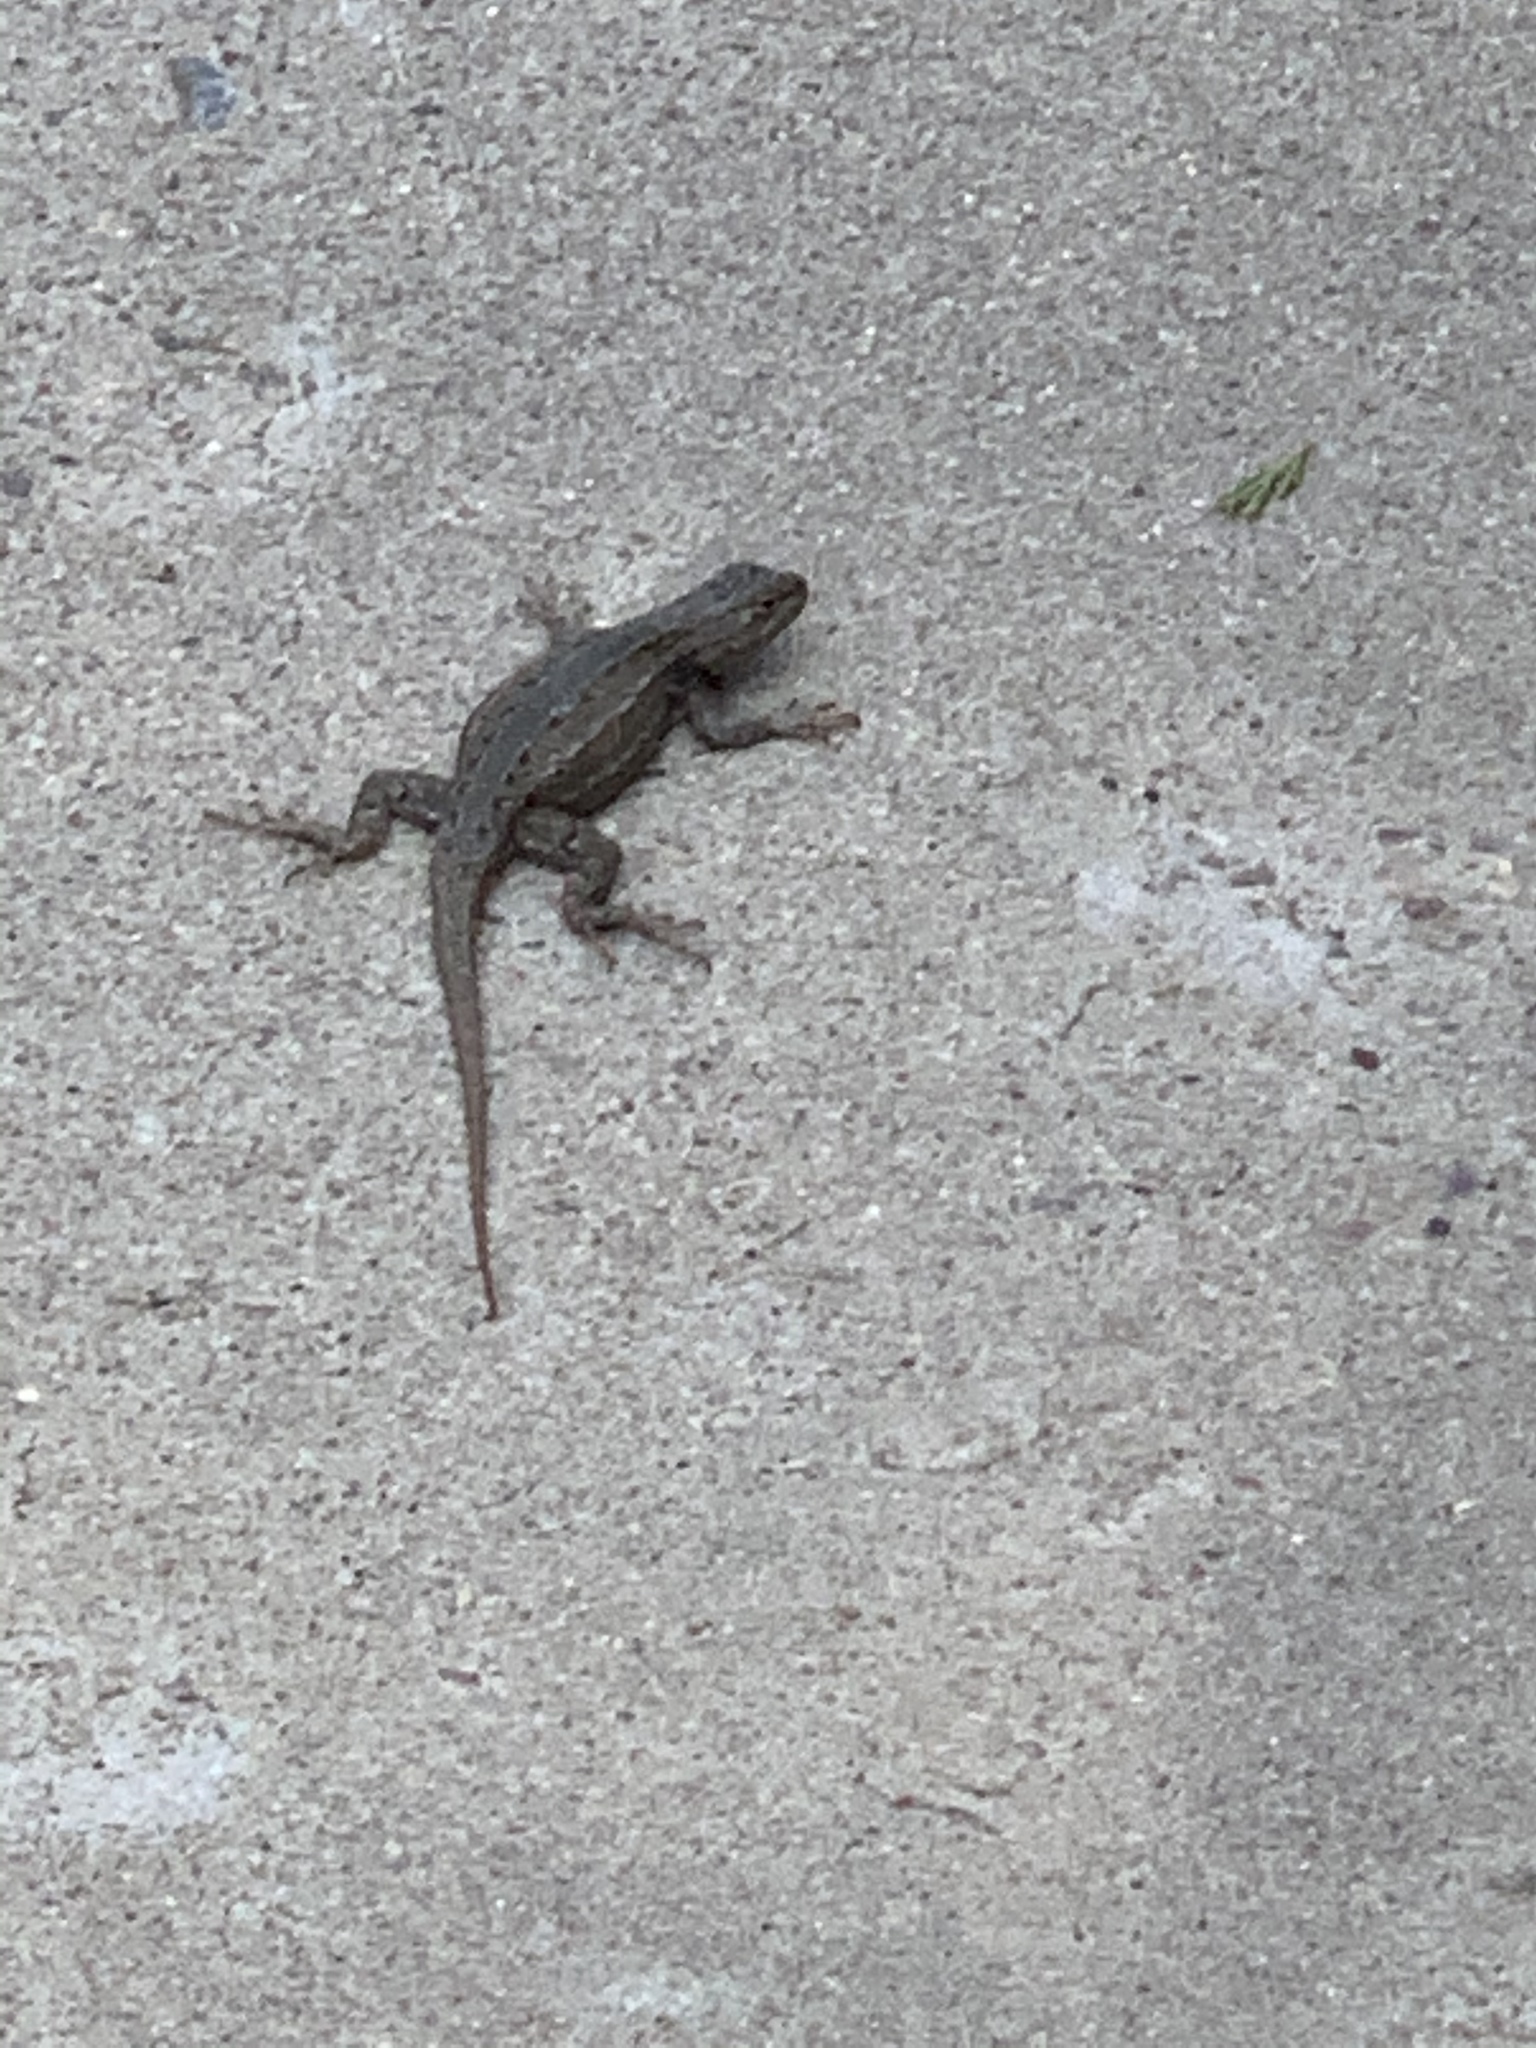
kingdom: Animalia
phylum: Chordata
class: Squamata
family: Phrynosomatidae
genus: Sceloporus
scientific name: Sceloporus cowlesi
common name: White sands prairie lizard
